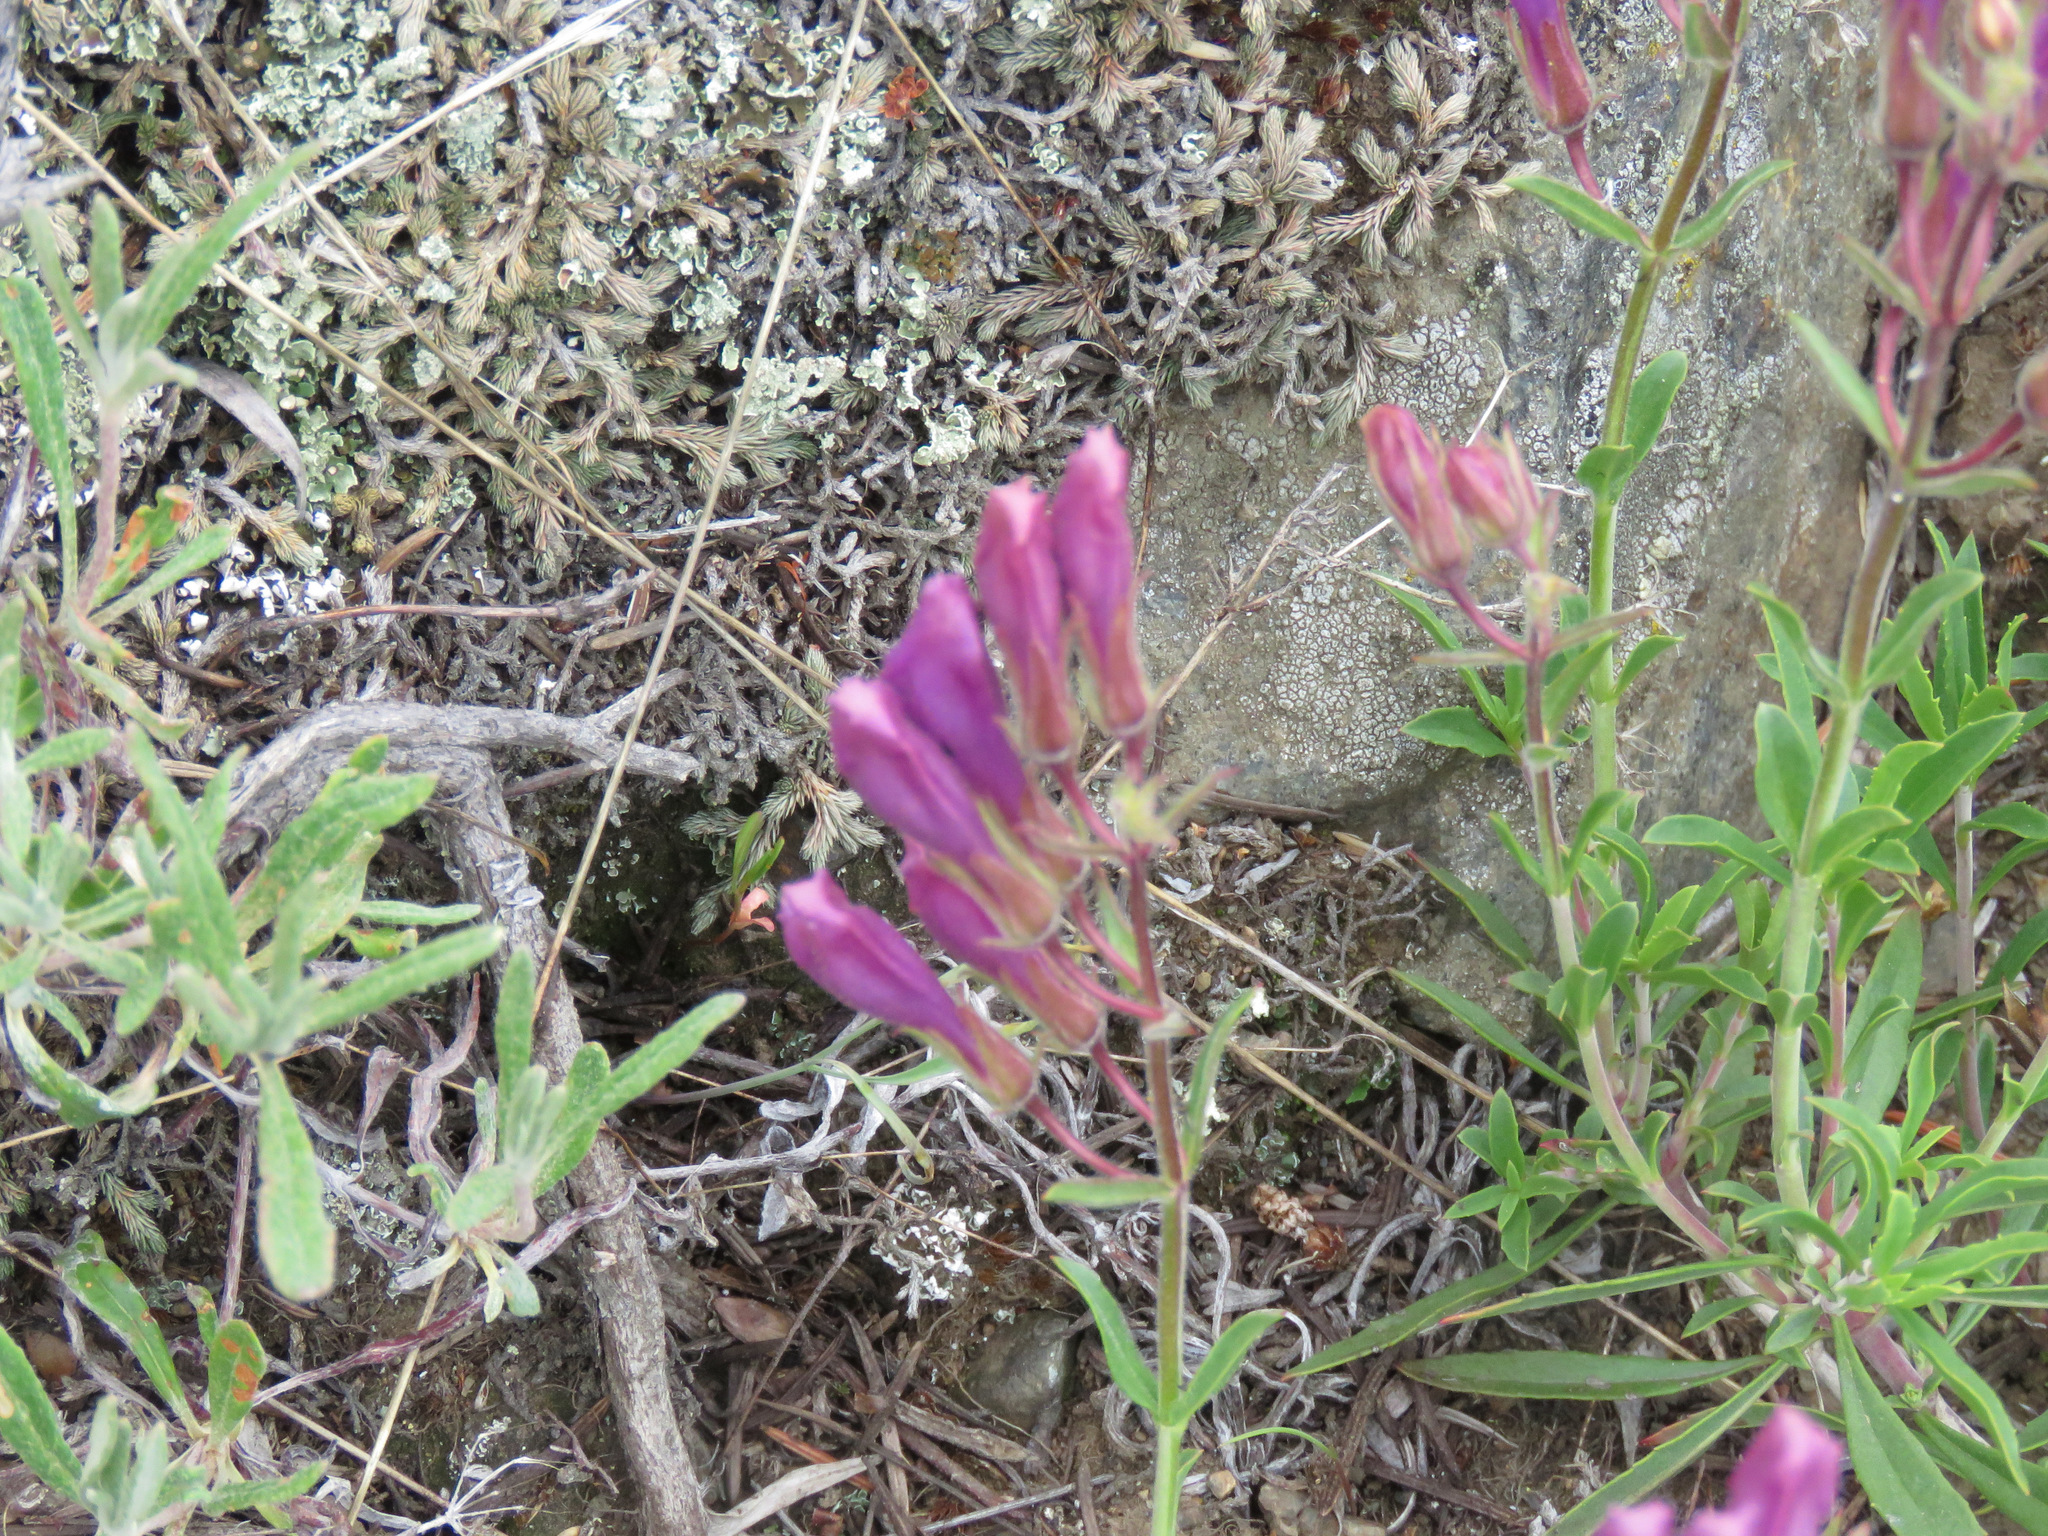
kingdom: Plantae
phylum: Tracheophyta
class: Magnoliopsida
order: Lamiales
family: Plantaginaceae
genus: Penstemon
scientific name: Penstemon fruticosus
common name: Bush penstemon
